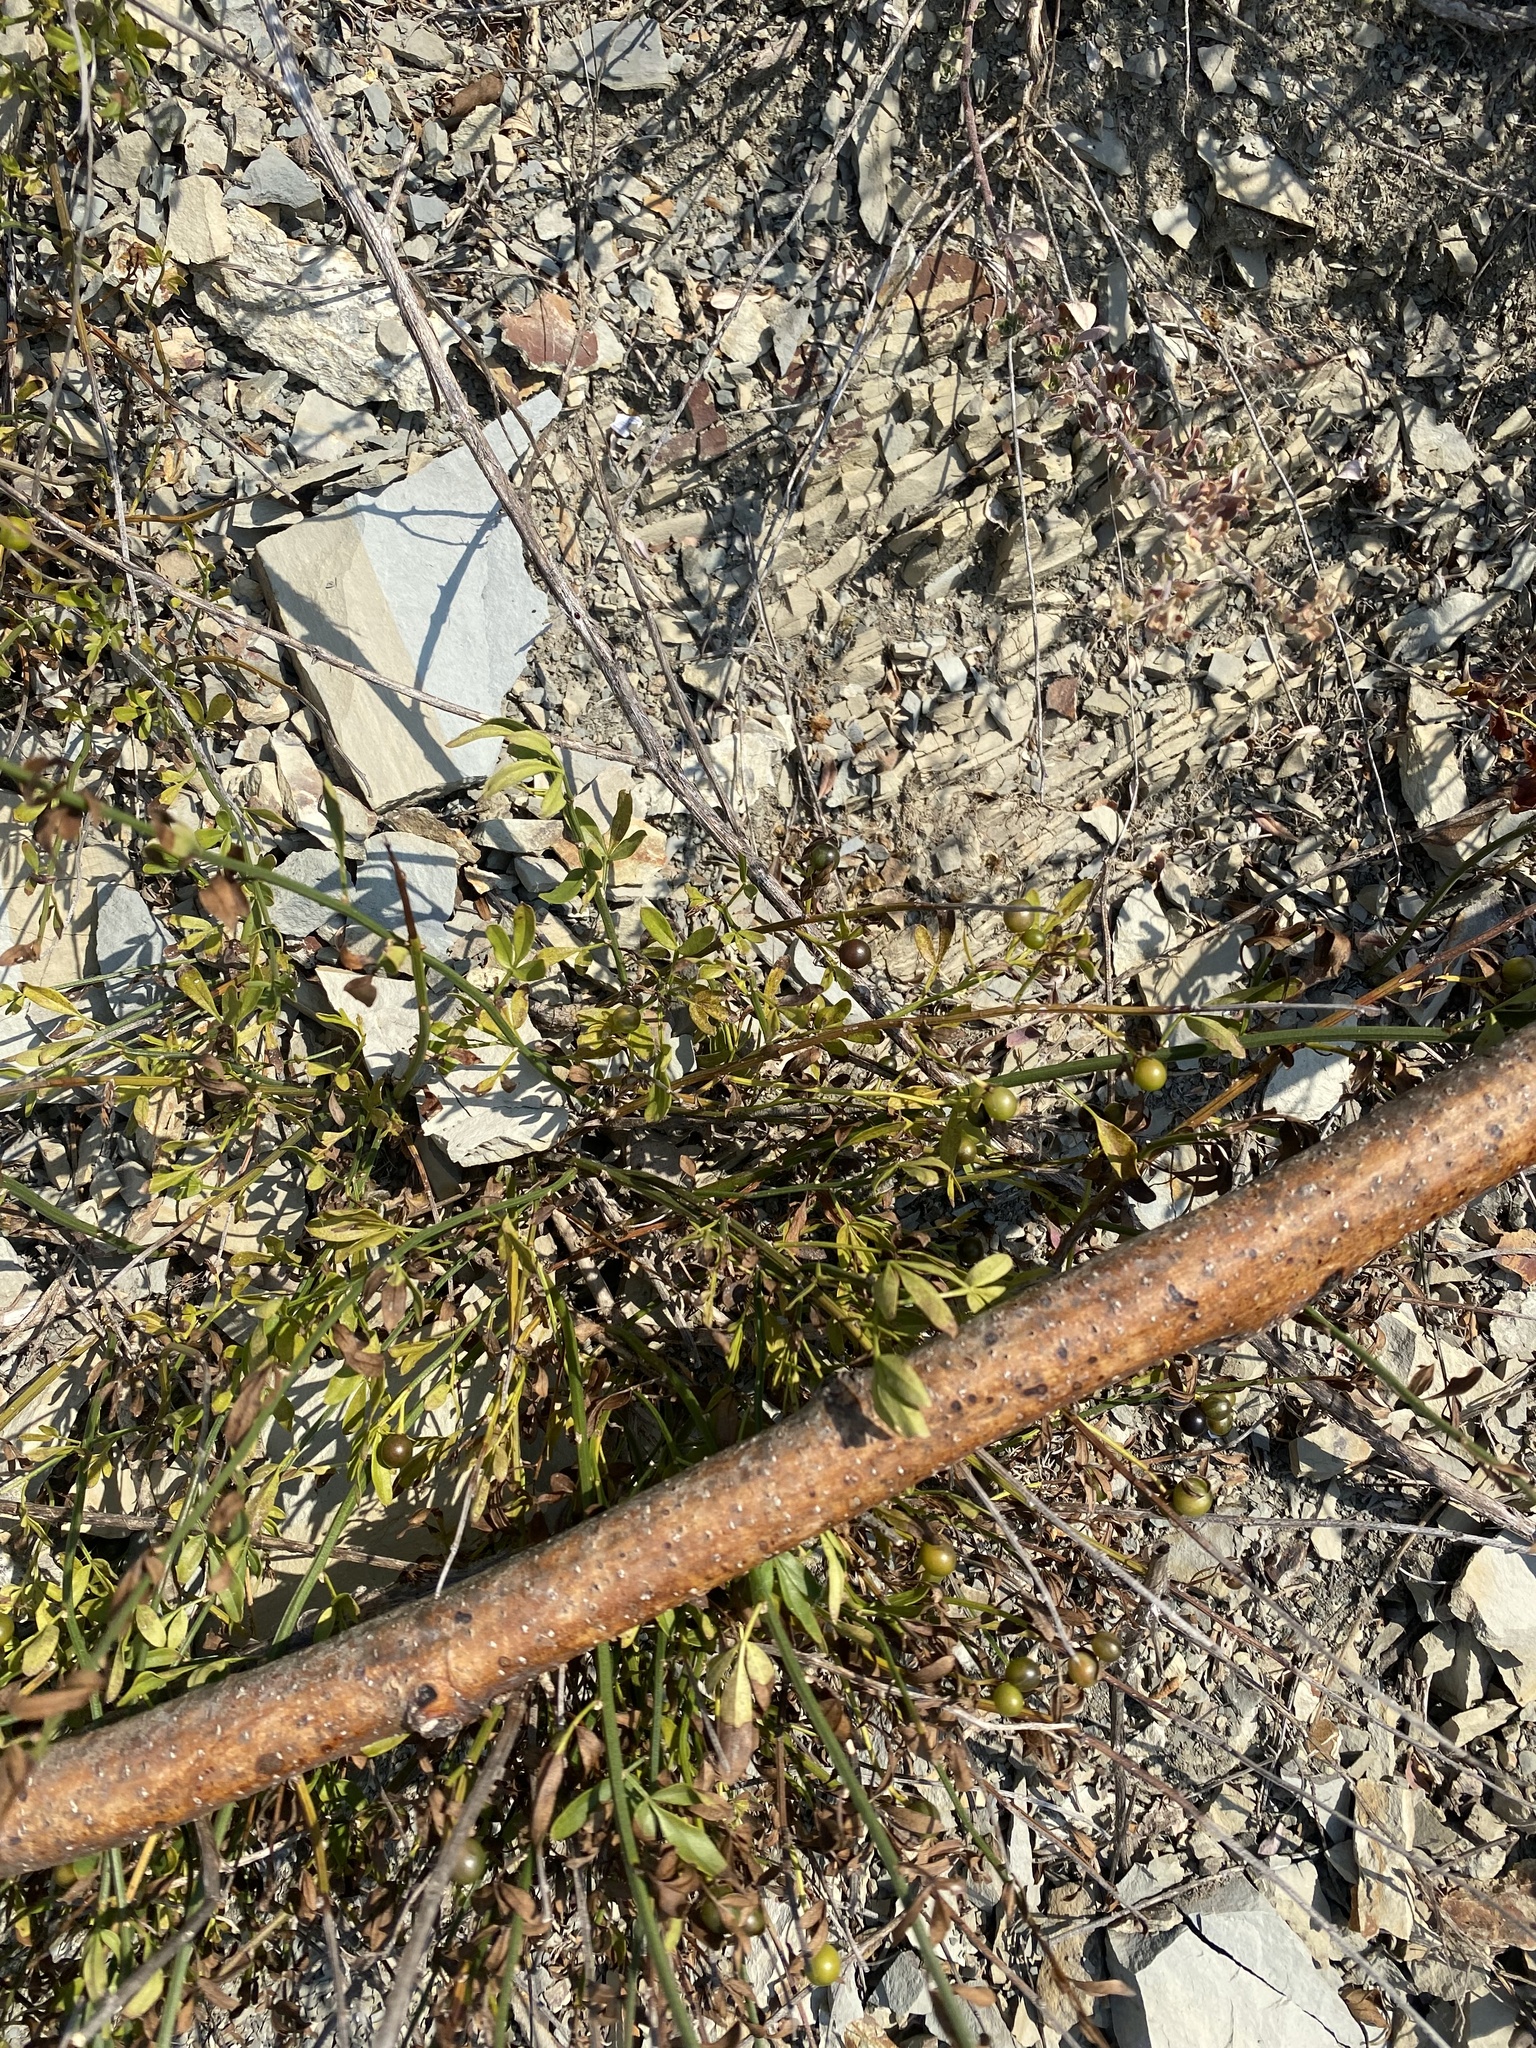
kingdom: Plantae
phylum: Tracheophyta
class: Magnoliopsida
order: Lamiales
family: Oleaceae
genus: Chrysojasminum
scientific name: Chrysojasminum fruticans
